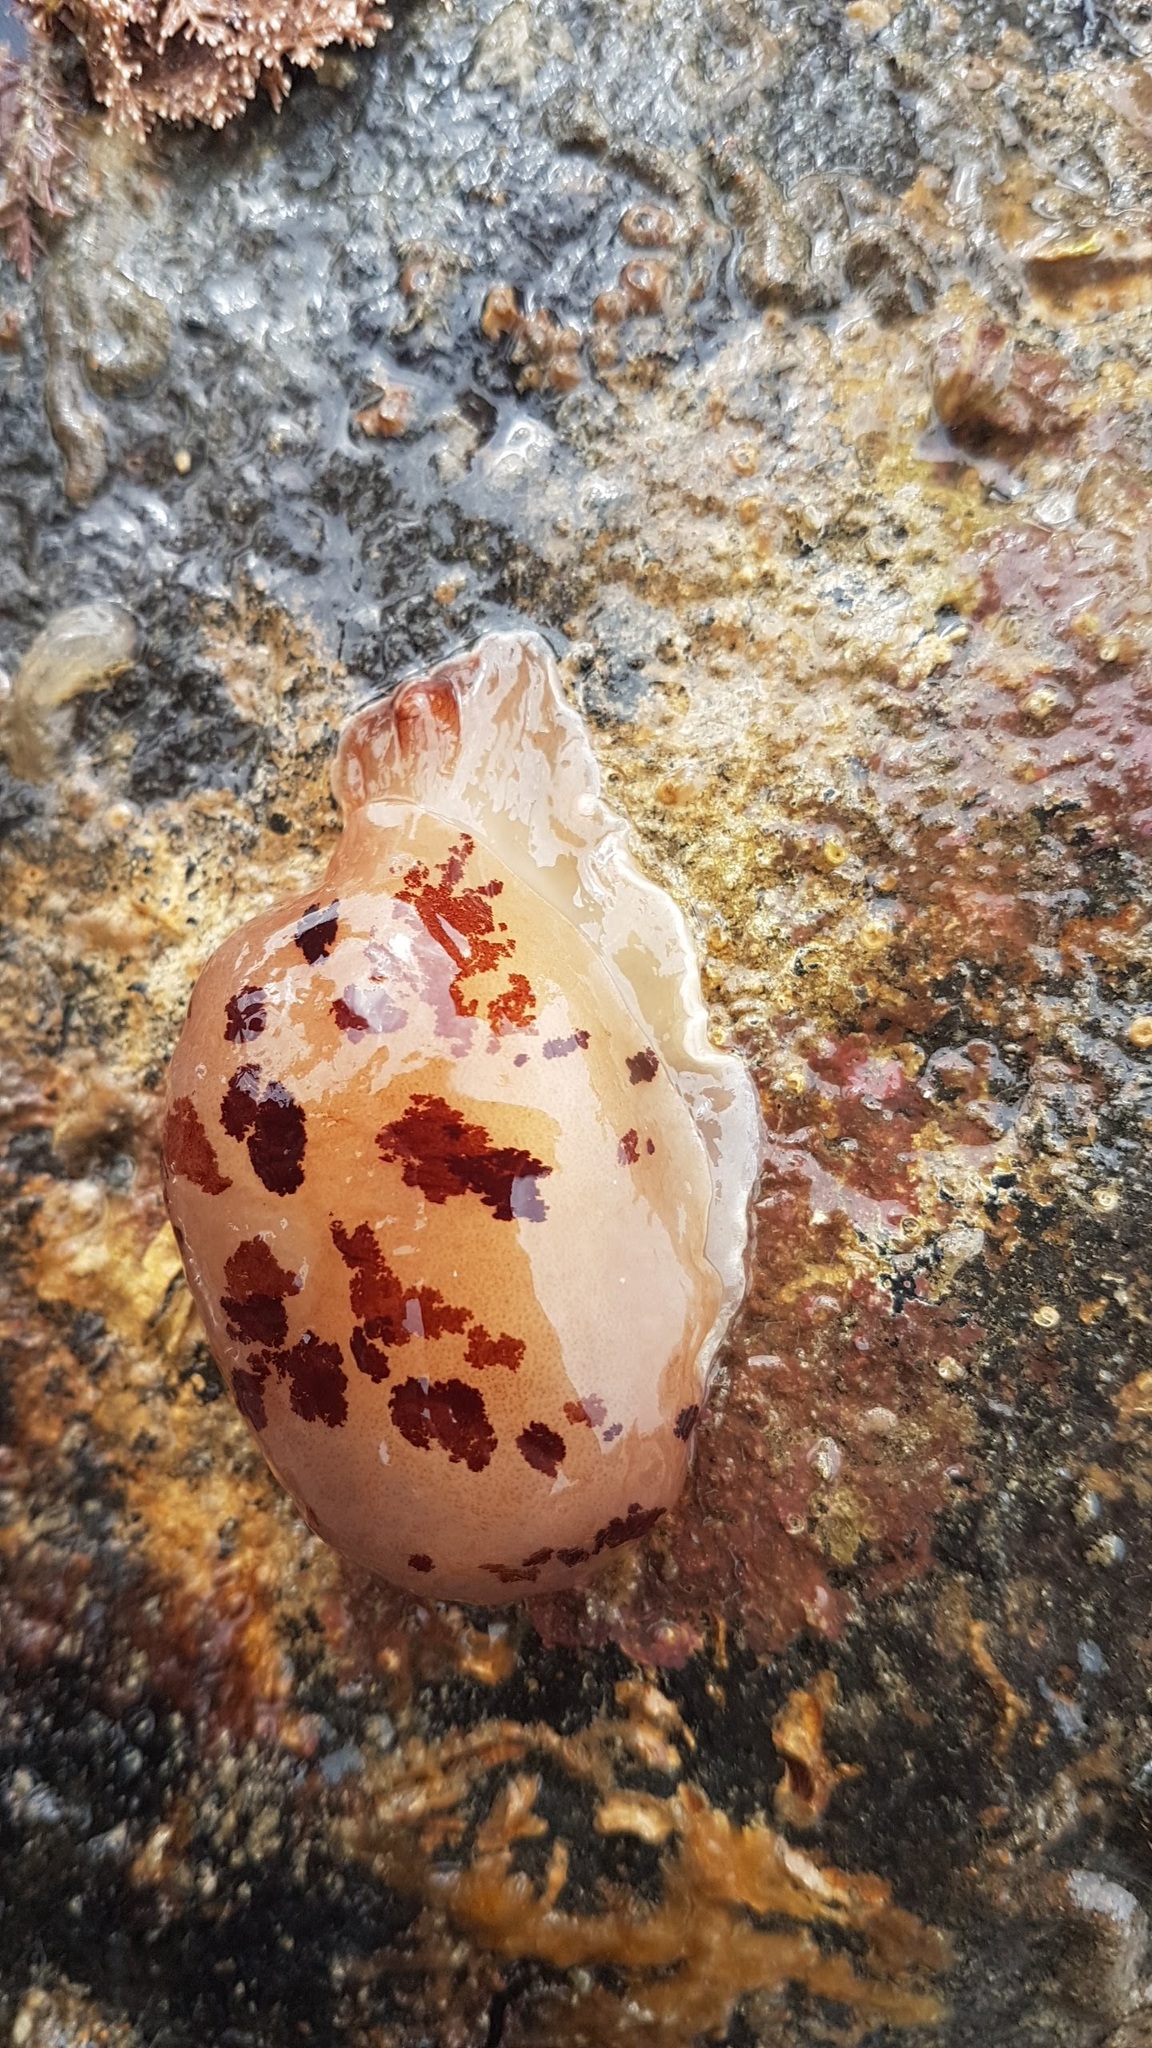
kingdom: Animalia
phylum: Mollusca
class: Gastropoda
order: Pleurobranchida
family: Pleurobranchidae
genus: Berthella
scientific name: Berthella ornata
